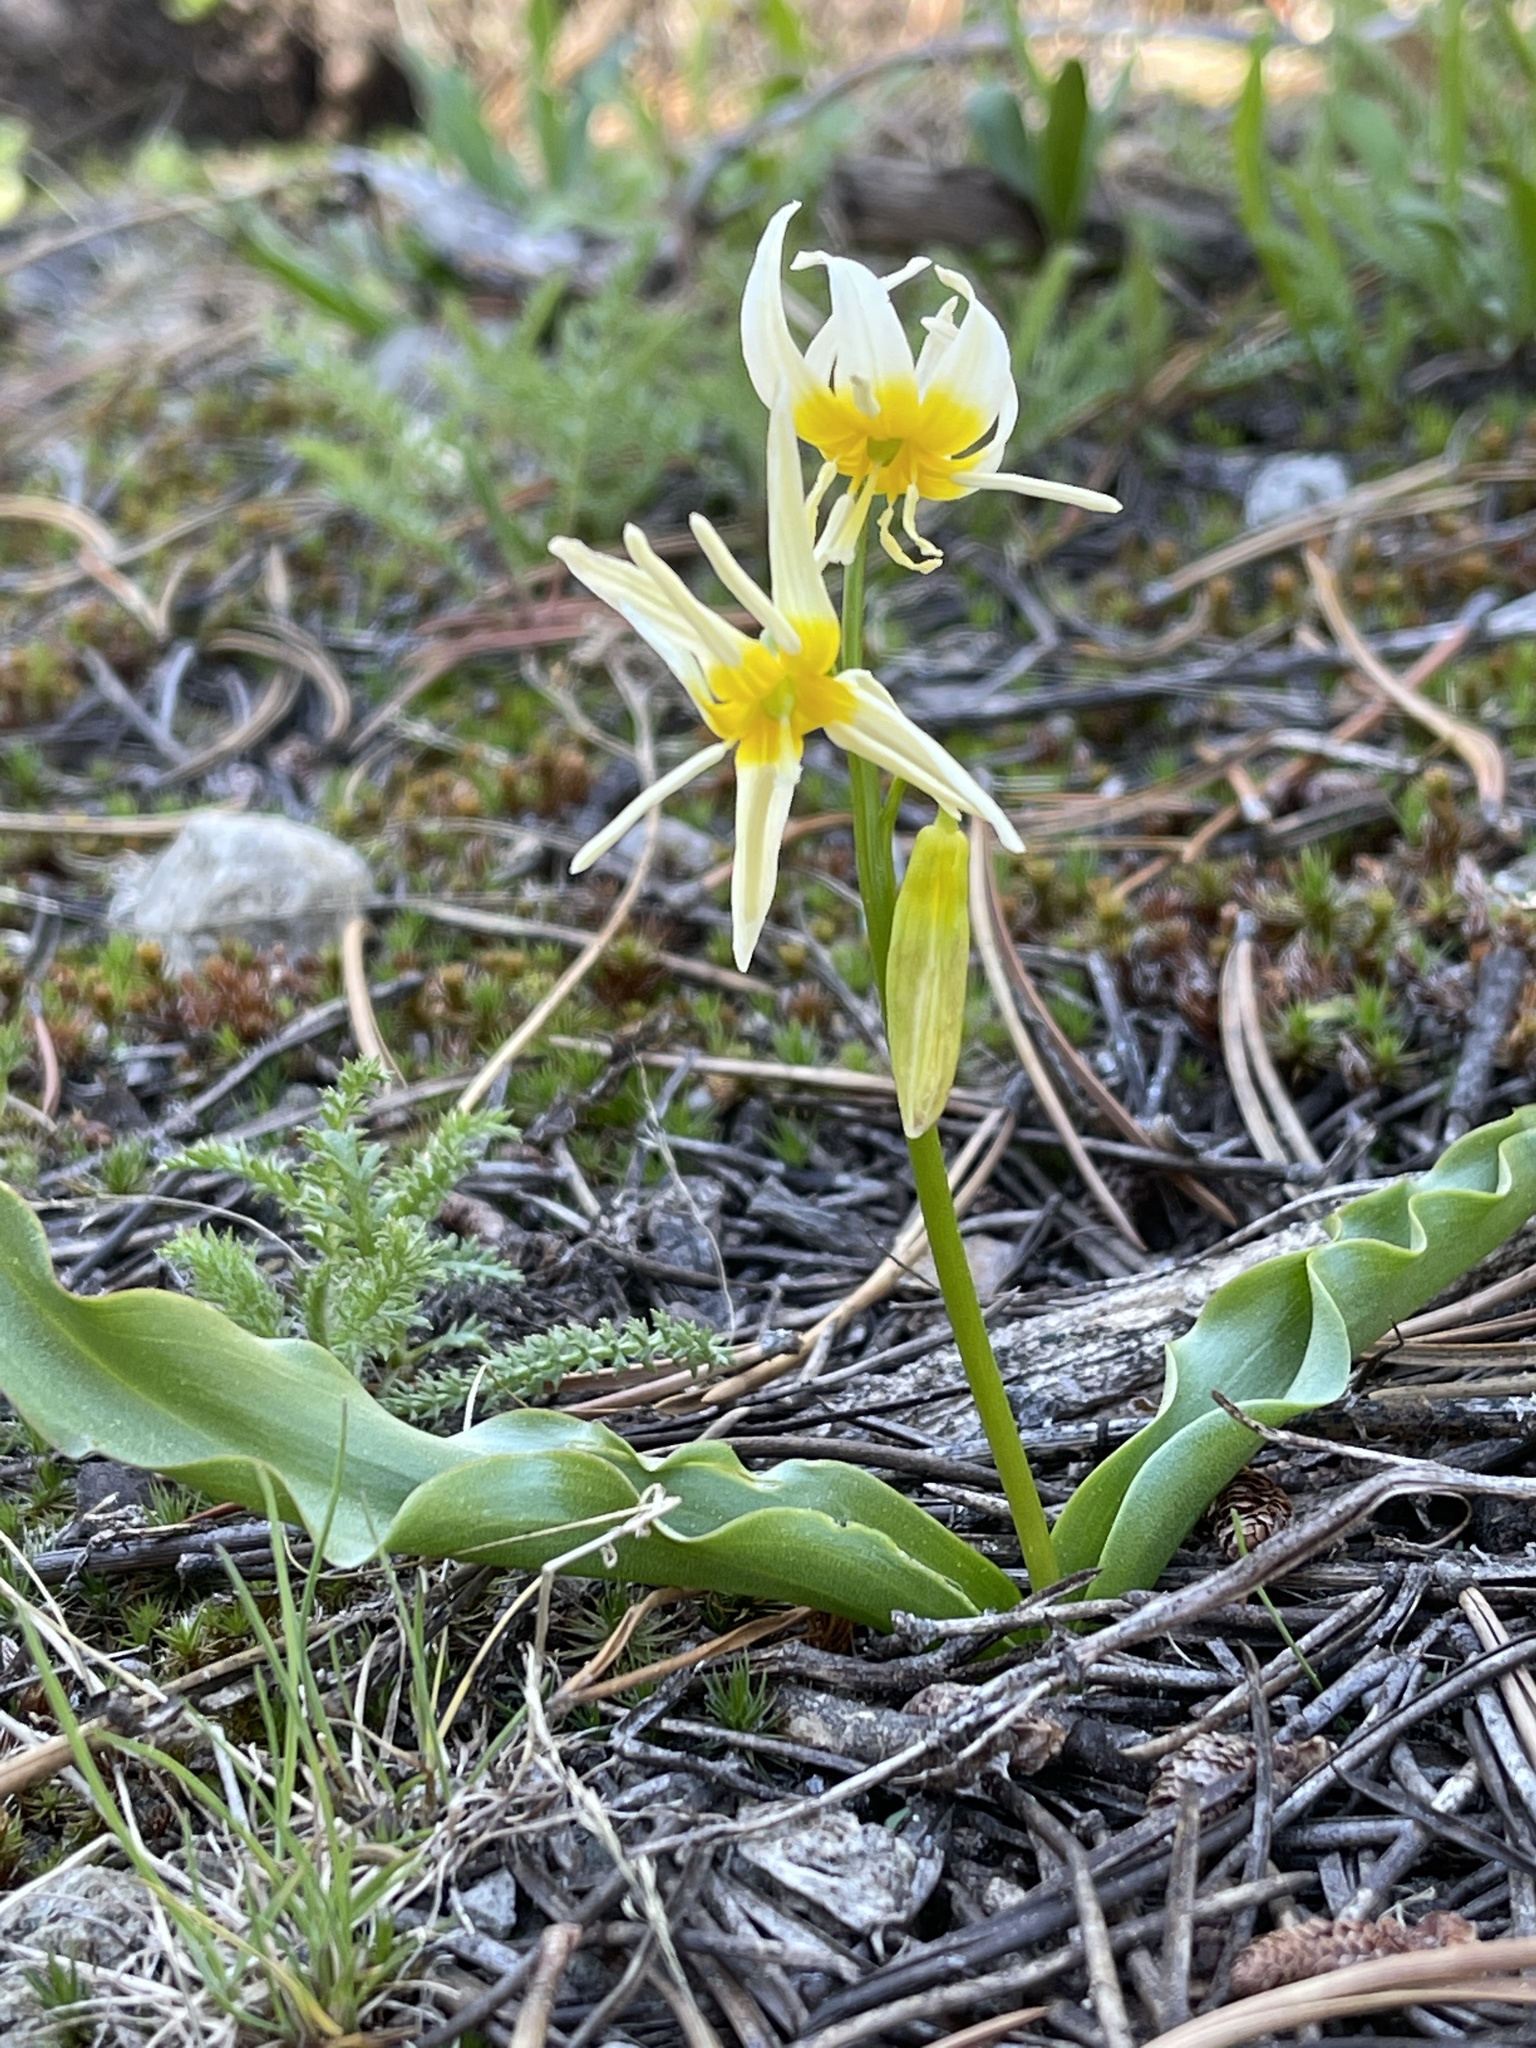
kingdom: Plantae
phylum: Tracheophyta
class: Liliopsida
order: Liliales
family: Liliaceae
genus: Erythronium
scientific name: Erythronium purpurascens
